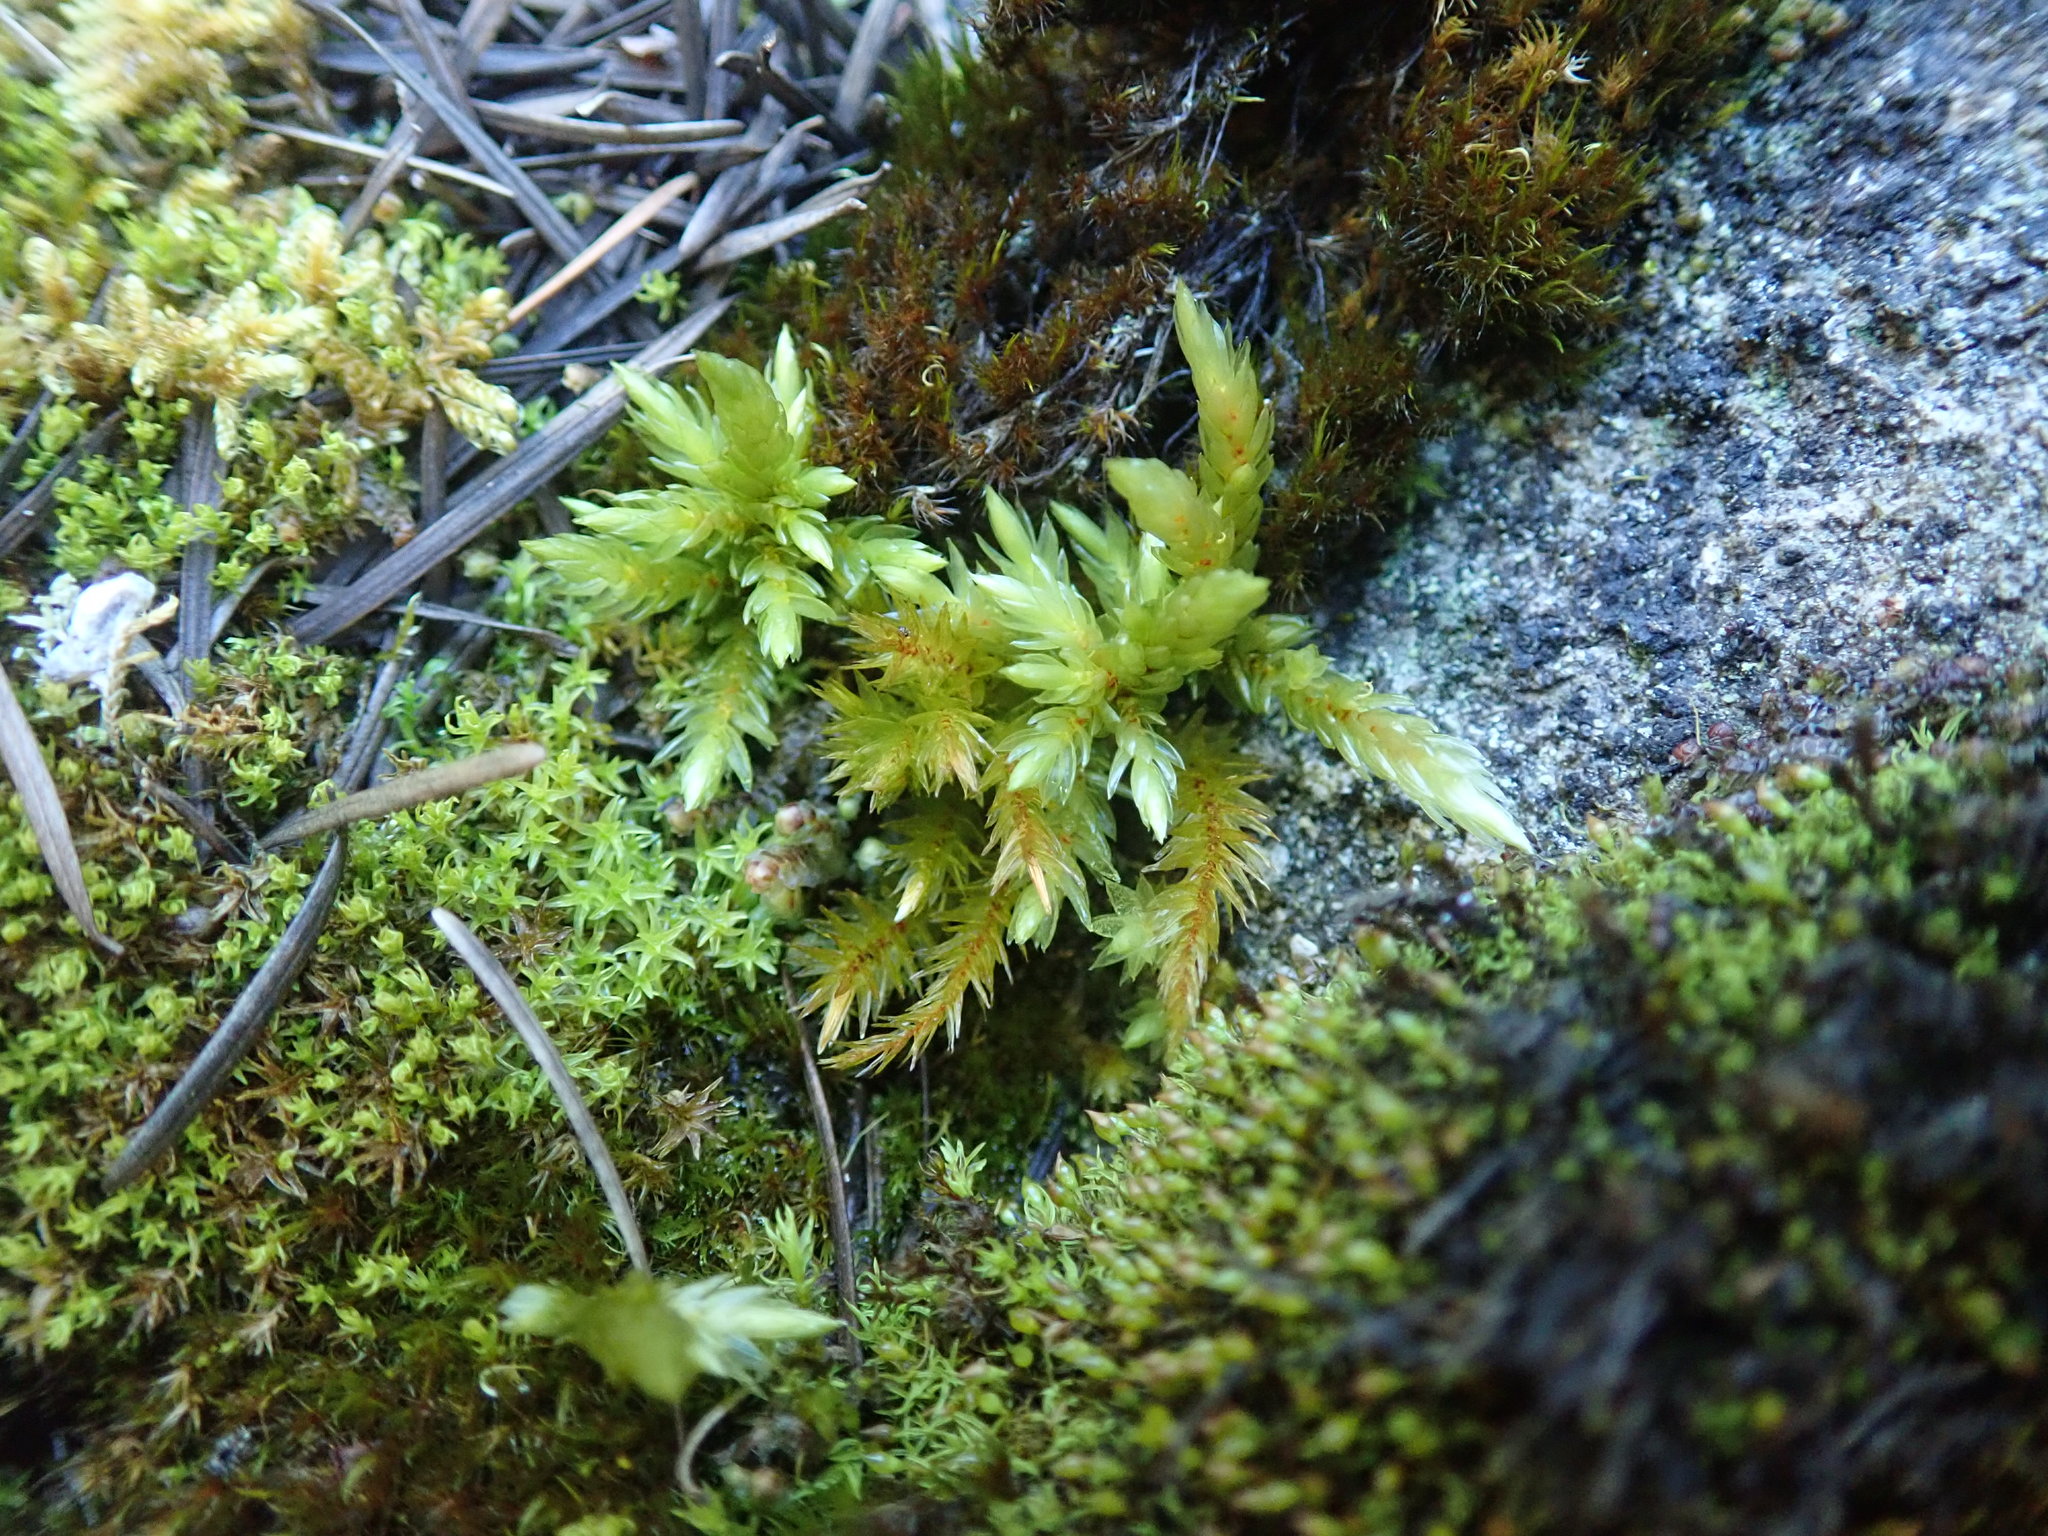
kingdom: Plantae
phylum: Bryophyta
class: Bryopsida
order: Hypnales
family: Climaciaceae
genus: Climacium
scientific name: Climacium dendroides
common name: Northern tree moss
